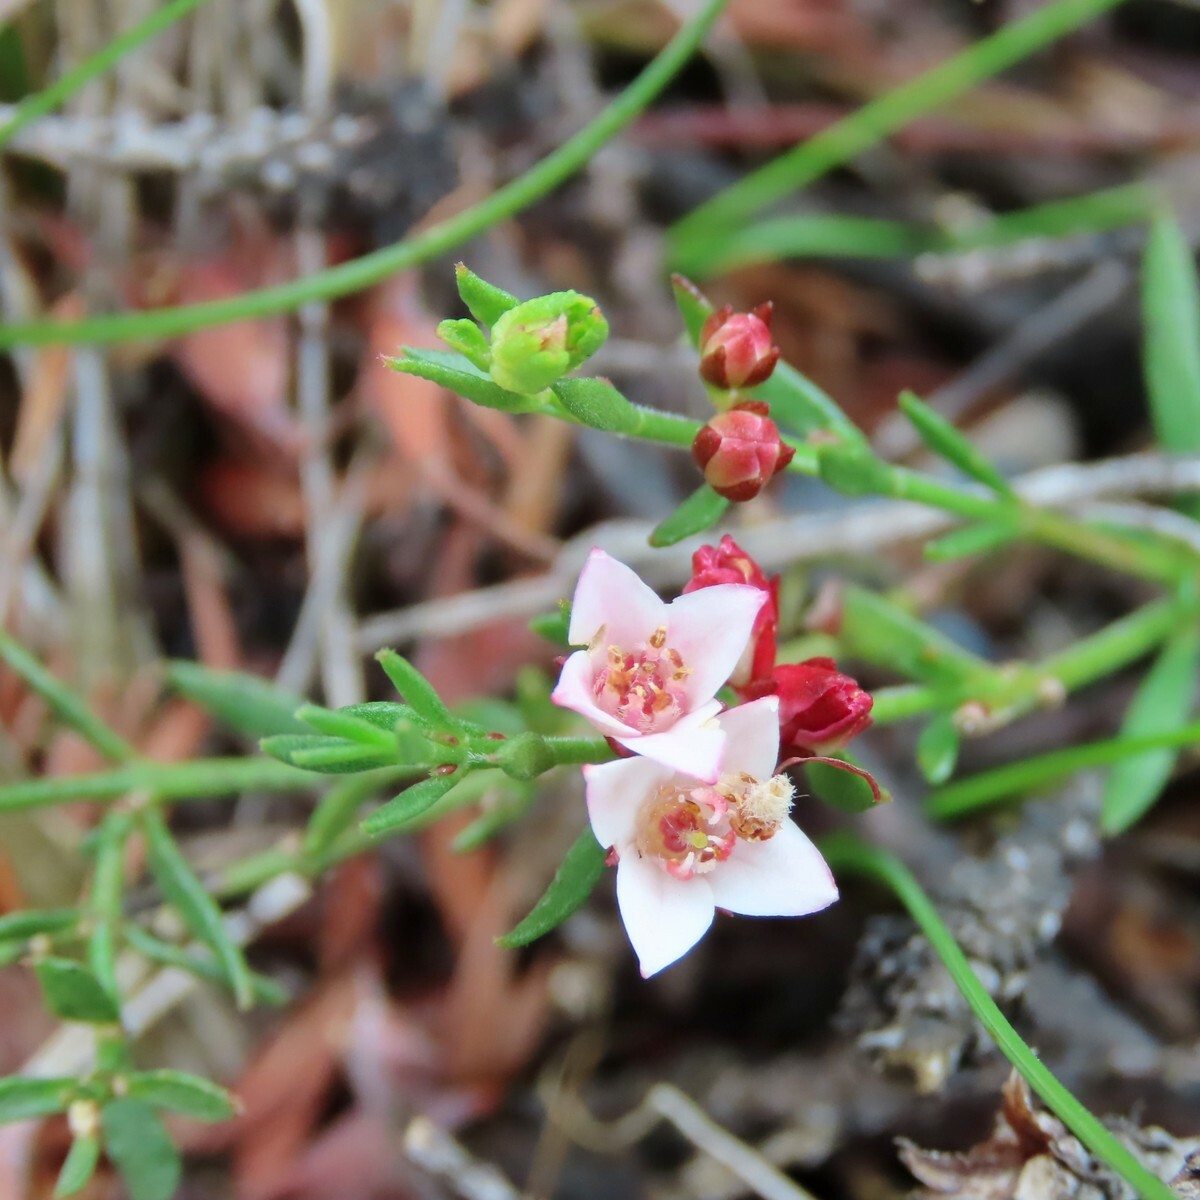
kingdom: Plantae
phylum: Tracheophyta
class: Magnoliopsida
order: Sapindales
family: Rutaceae
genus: Cyanothamnus
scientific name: Cyanothamnus nanus
